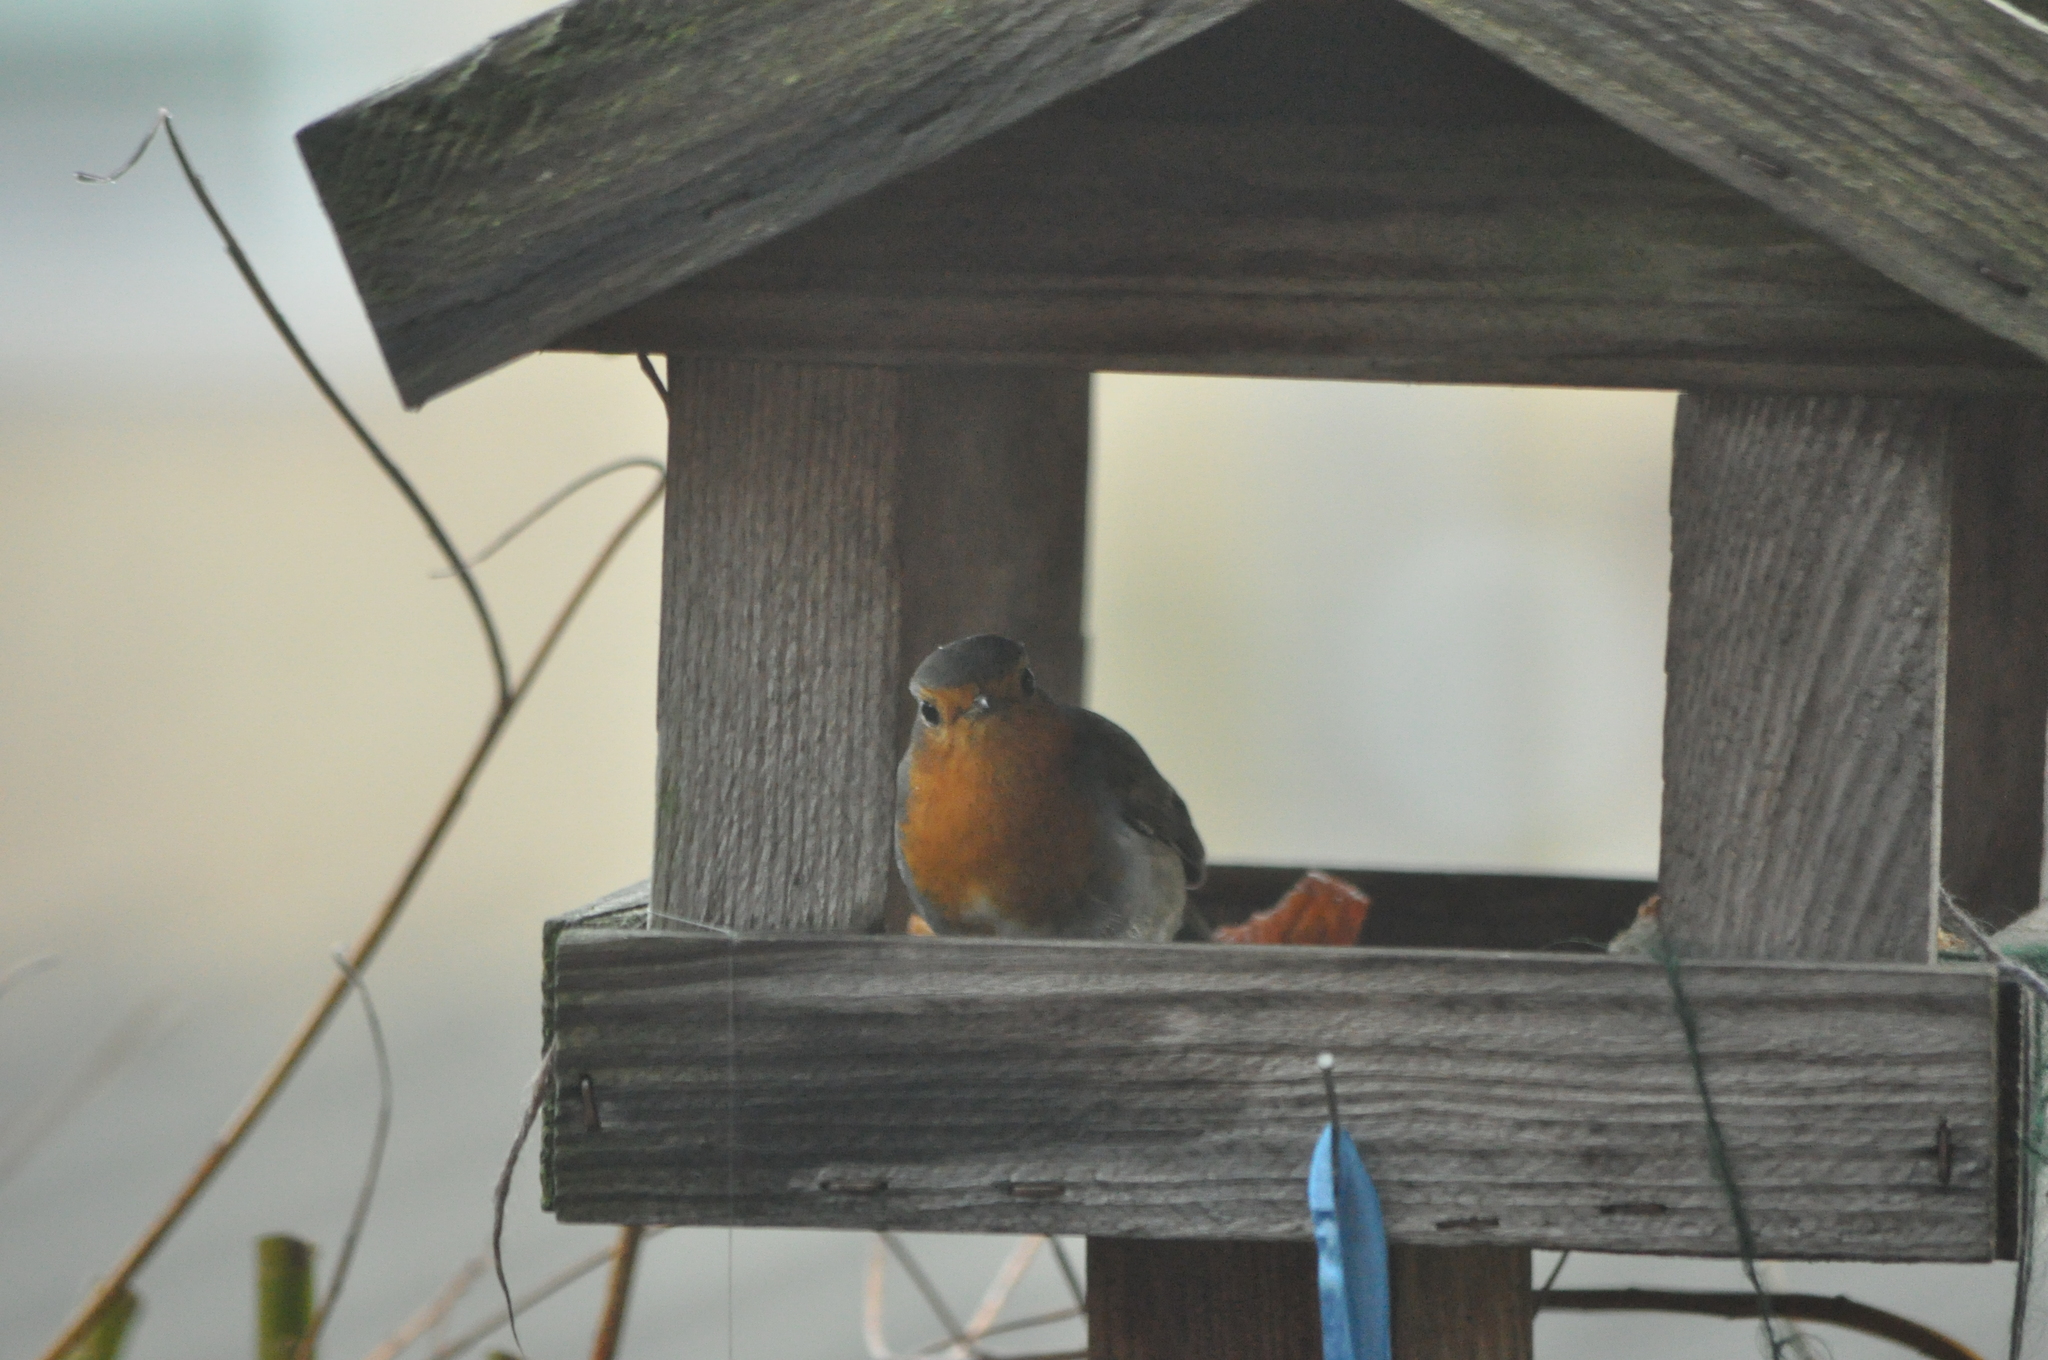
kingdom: Animalia
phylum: Chordata
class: Aves
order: Passeriformes
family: Muscicapidae
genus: Erithacus
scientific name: Erithacus rubecula
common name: European robin
